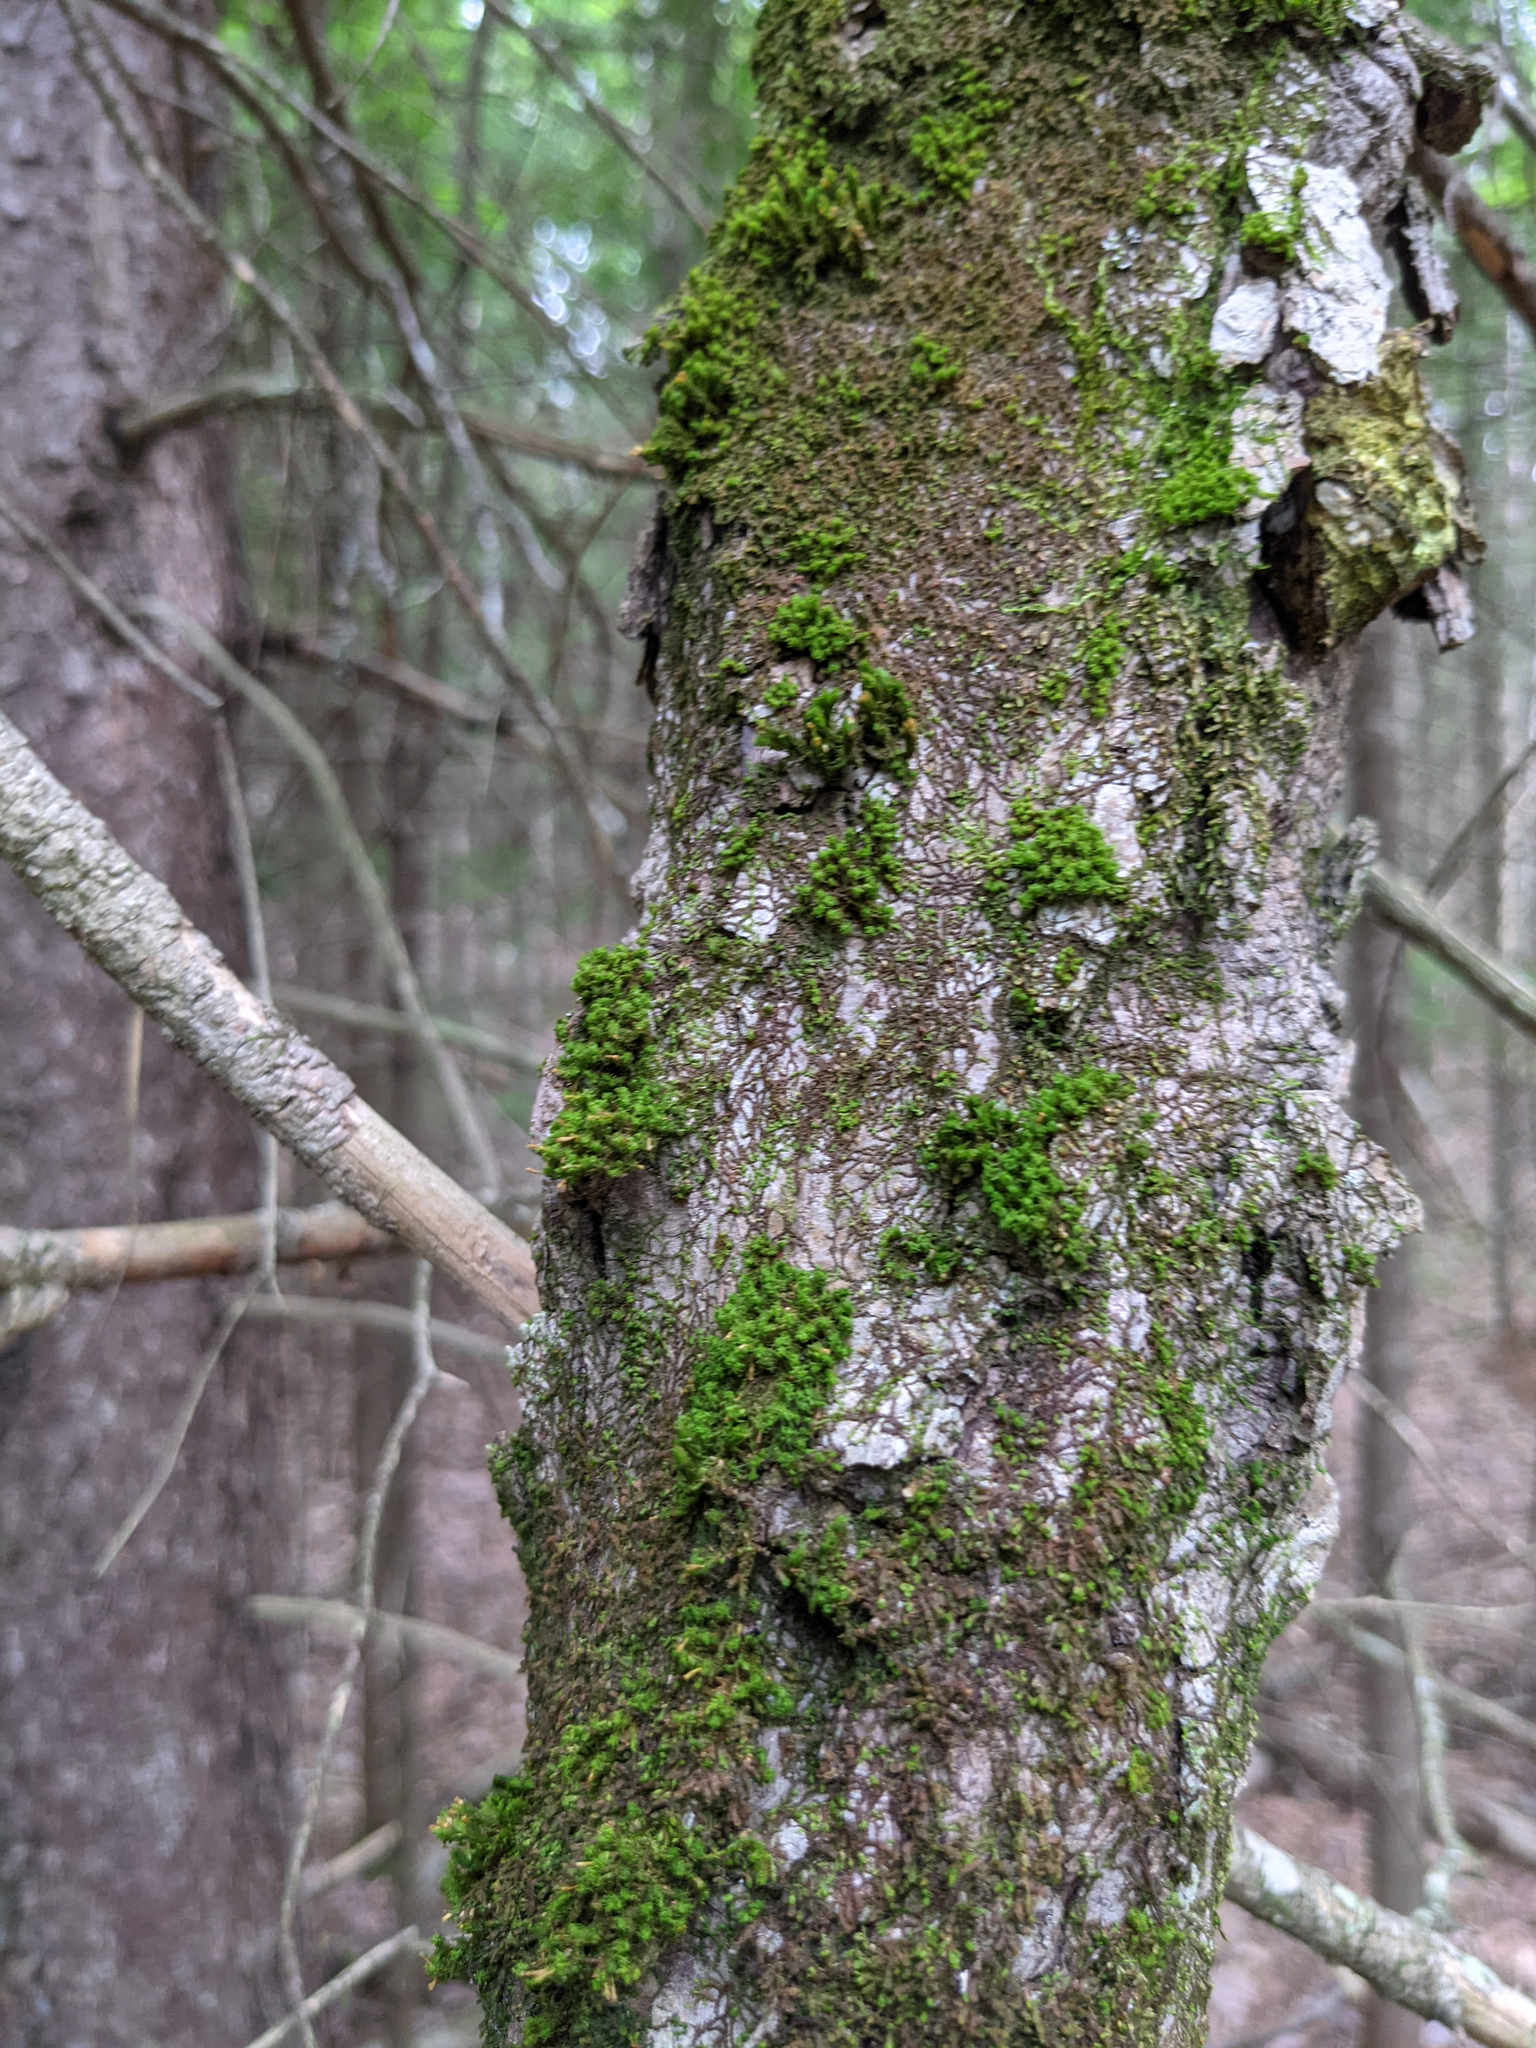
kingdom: Plantae
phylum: Bryophyta
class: Bryopsida
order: Orthotrichales
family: Orthotrichaceae
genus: Ulota
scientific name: Ulota crispa
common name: Crisped pincushion moss
